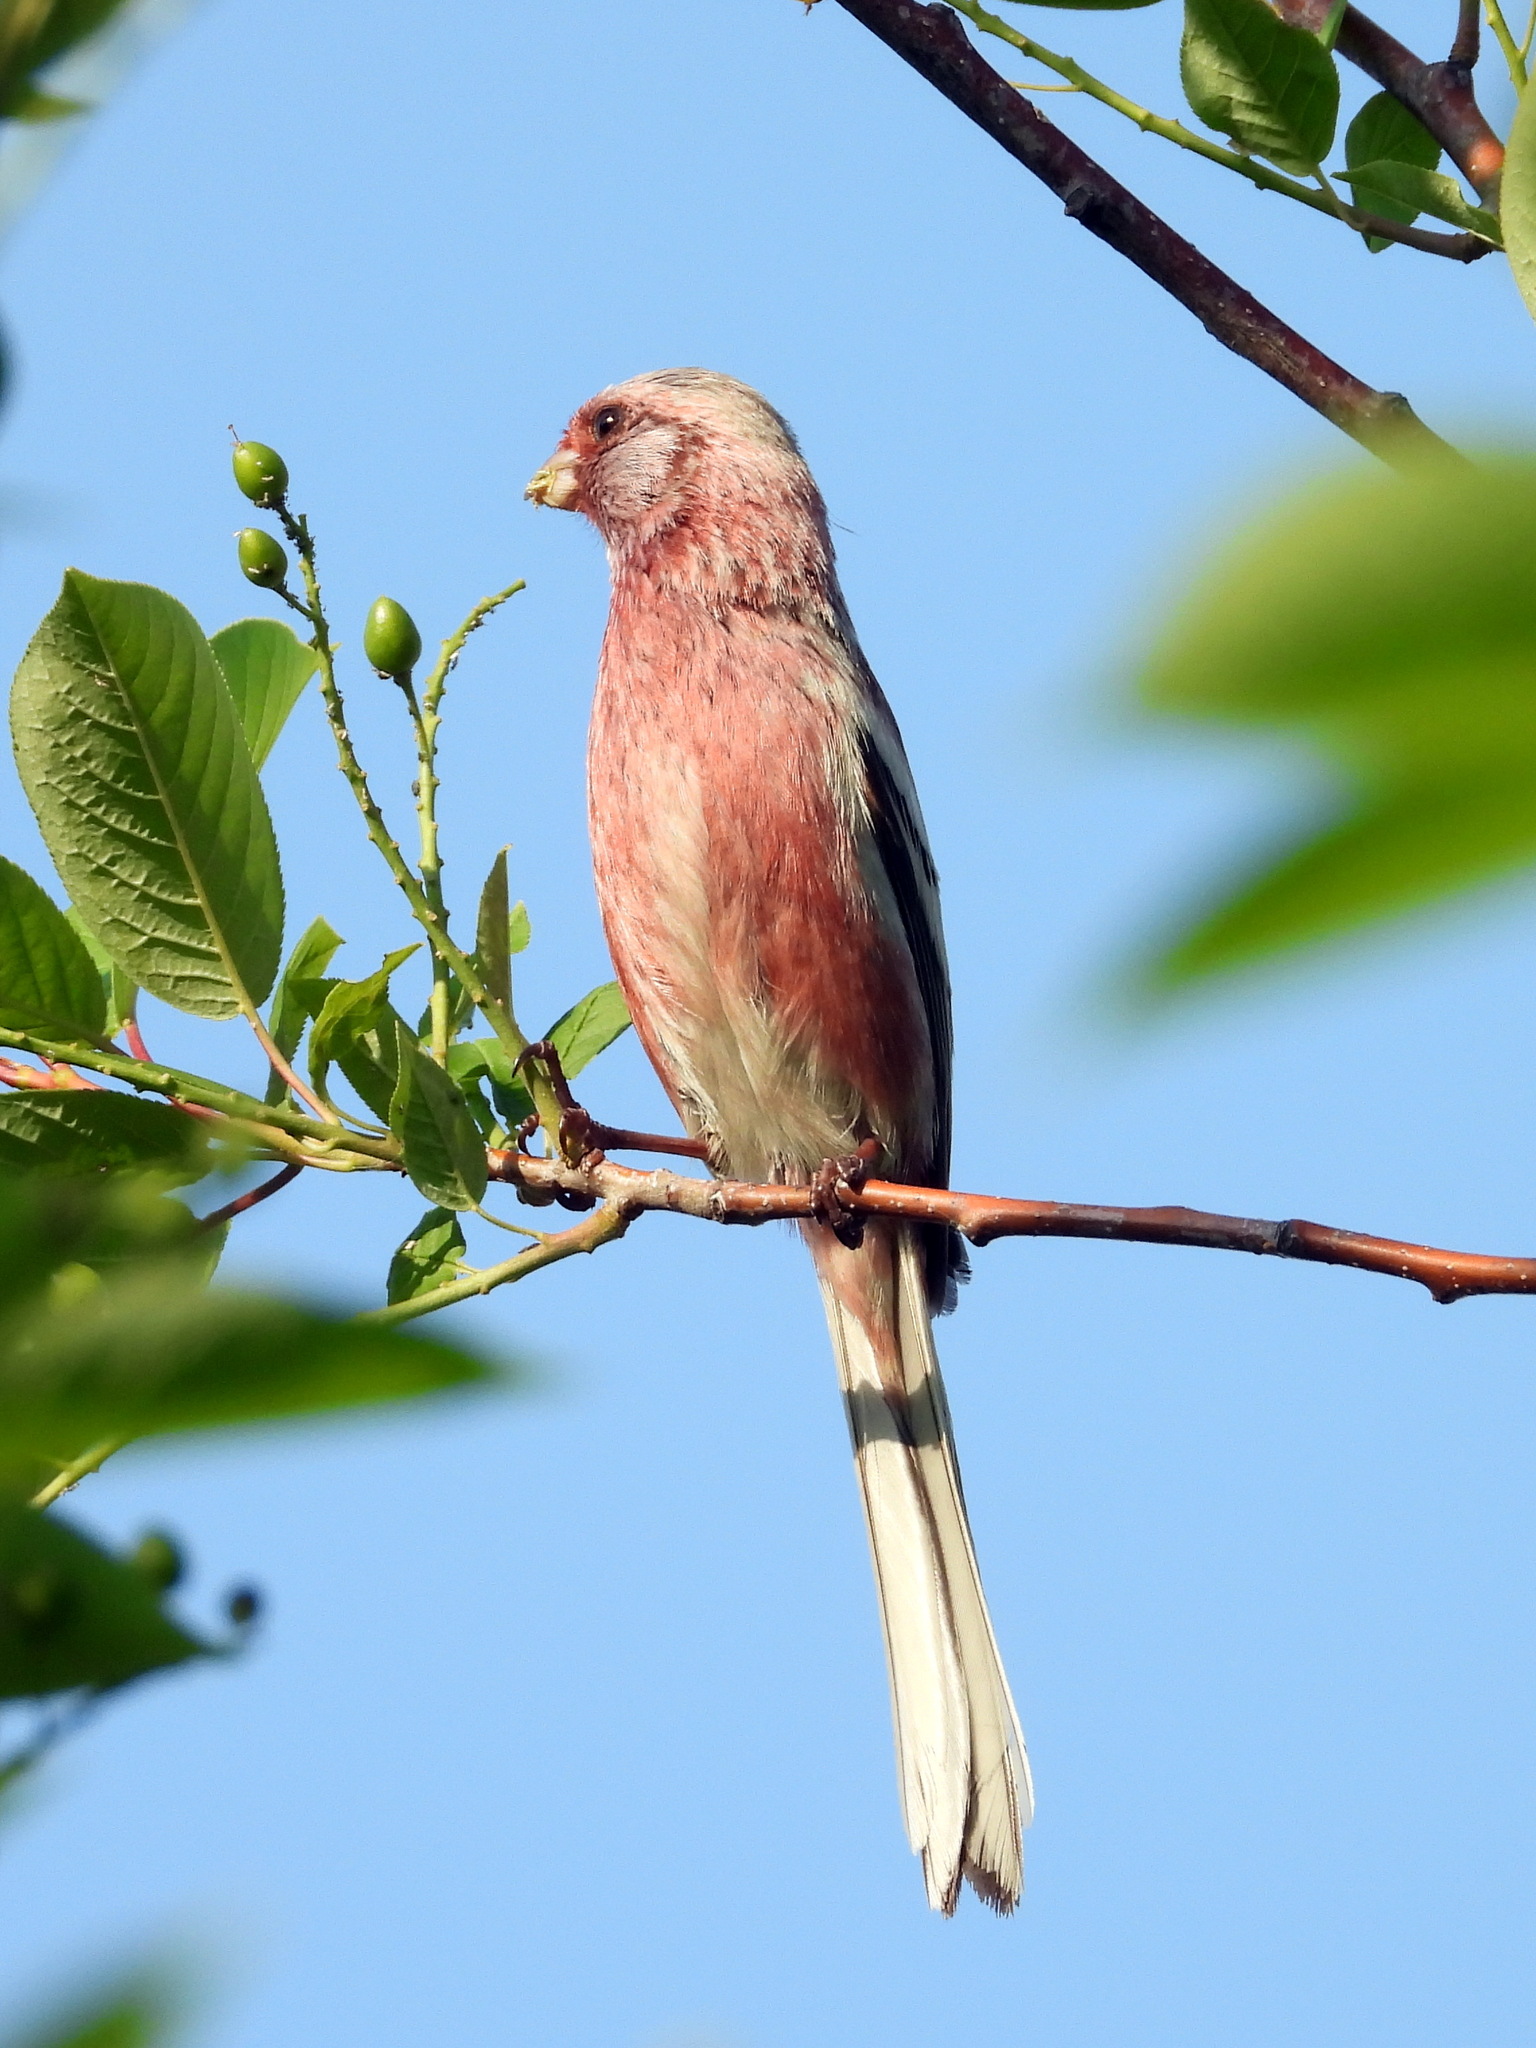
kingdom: Animalia
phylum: Chordata
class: Aves
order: Passeriformes
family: Fringillidae
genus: Carpodacus
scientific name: Carpodacus sibiricus
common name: Long-tailed rosefinch
